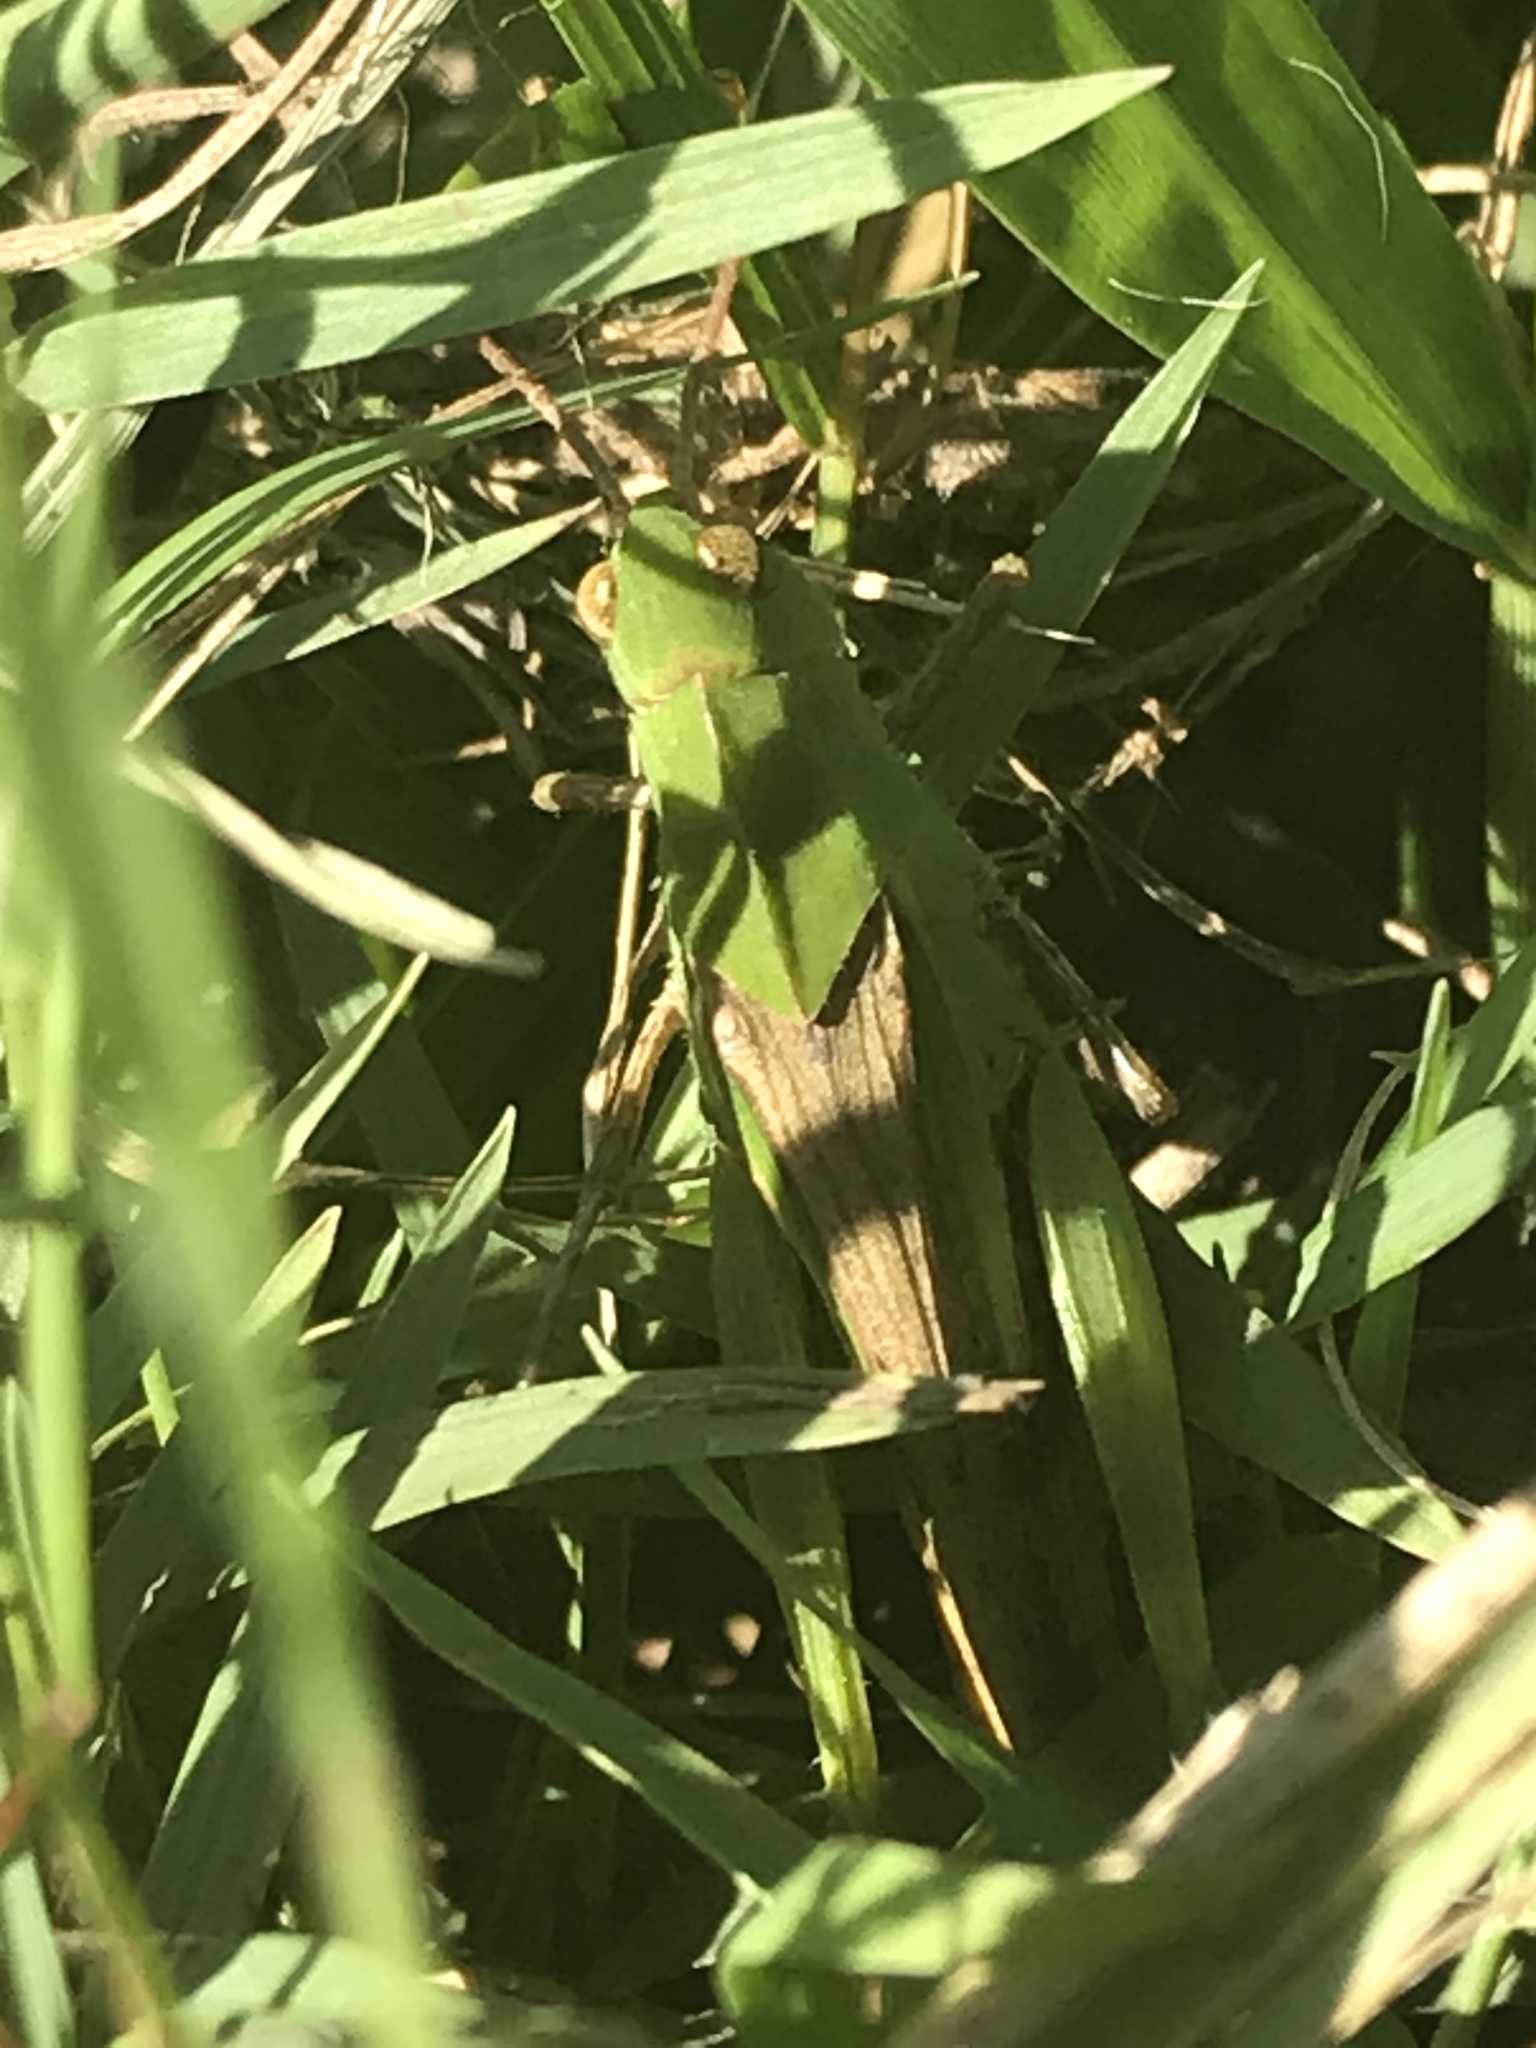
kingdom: Animalia
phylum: Arthropoda
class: Insecta
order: Orthoptera
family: Acrididae
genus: Chortophaga
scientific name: Chortophaga viridifasciata
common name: Green-striped grasshopper
